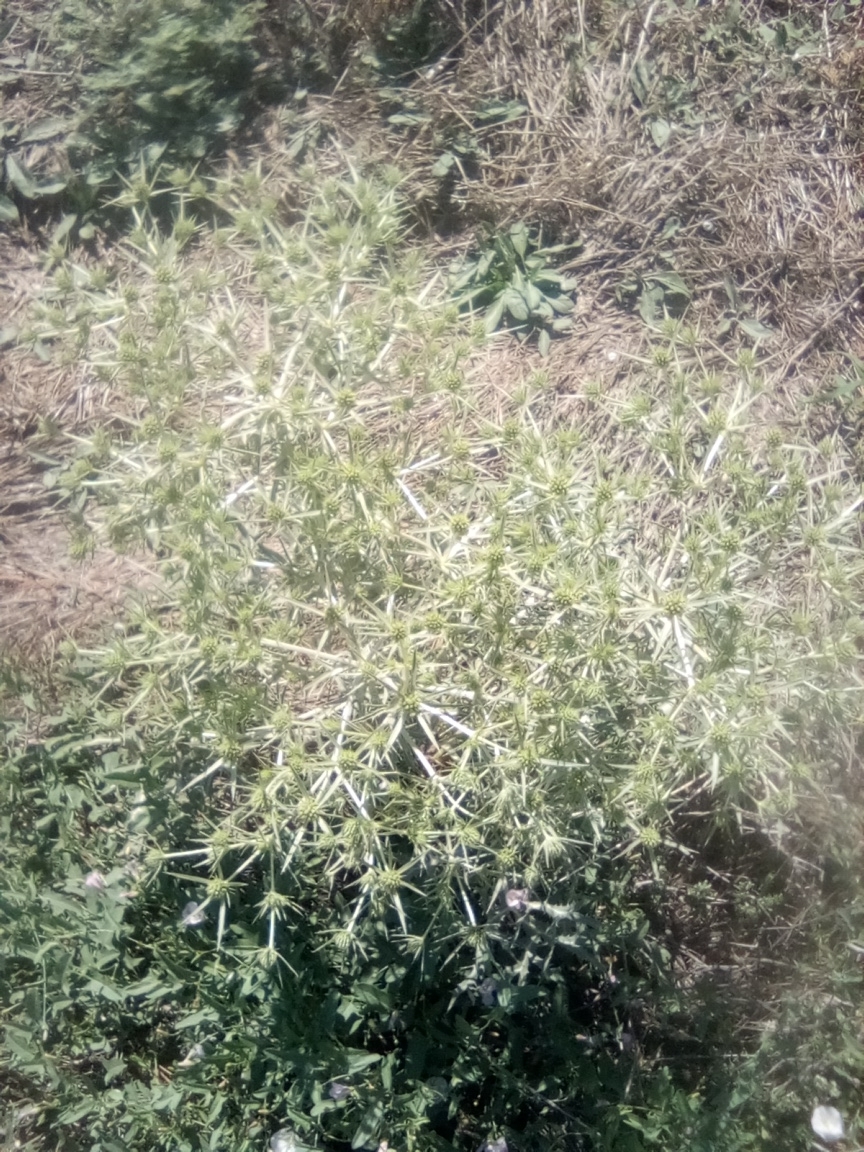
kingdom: Plantae
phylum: Tracheophyta
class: Magnoliopsida
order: Apiales
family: Apiaceae
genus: Eryngium
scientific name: Eryngium campestre
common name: Field eryngo
